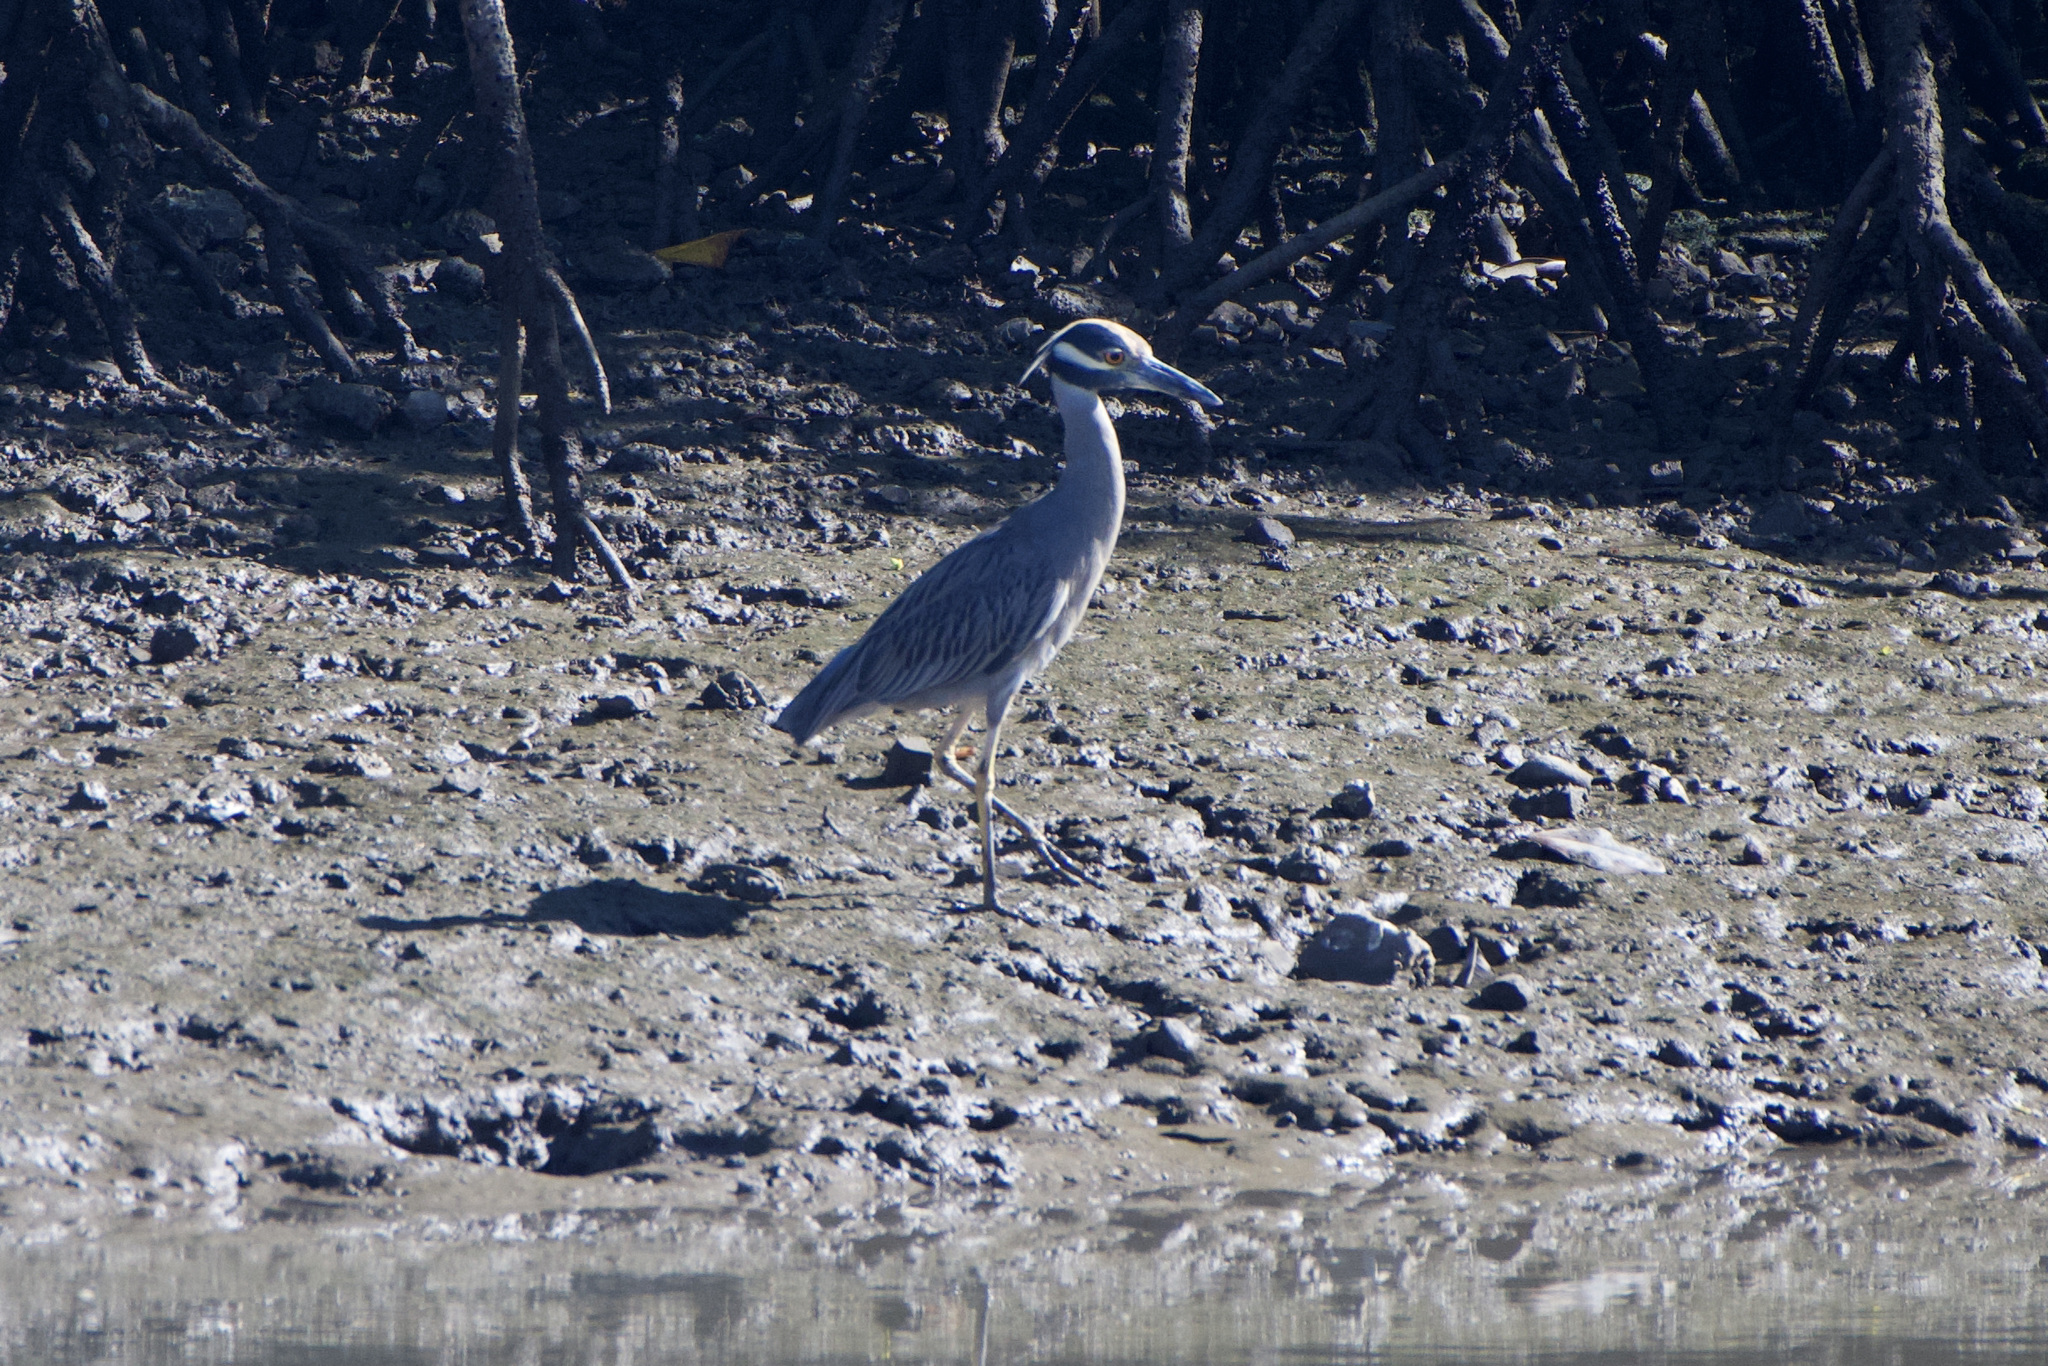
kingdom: Animalia
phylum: Chordata
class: Aves
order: Pelecaniformes
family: Ardeidae
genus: Nyctanassa
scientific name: Nyctanassa violacea
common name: Yellow-crowned night heron
